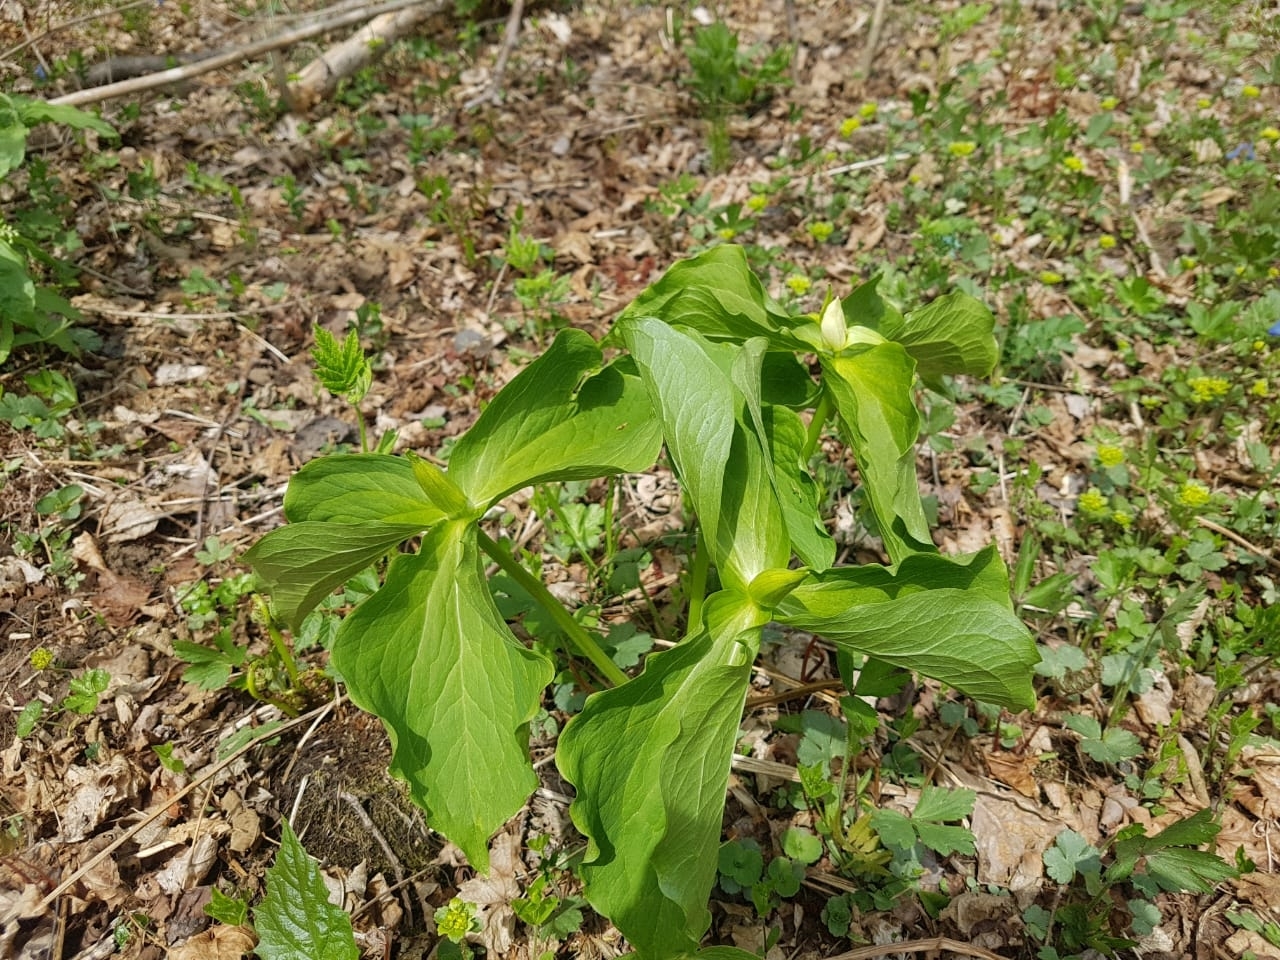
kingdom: Plantae
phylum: Tracheophyta
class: Liliopsida
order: Liliales
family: Melanthiaceae
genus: Trillium
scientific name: Trillium komarovii
